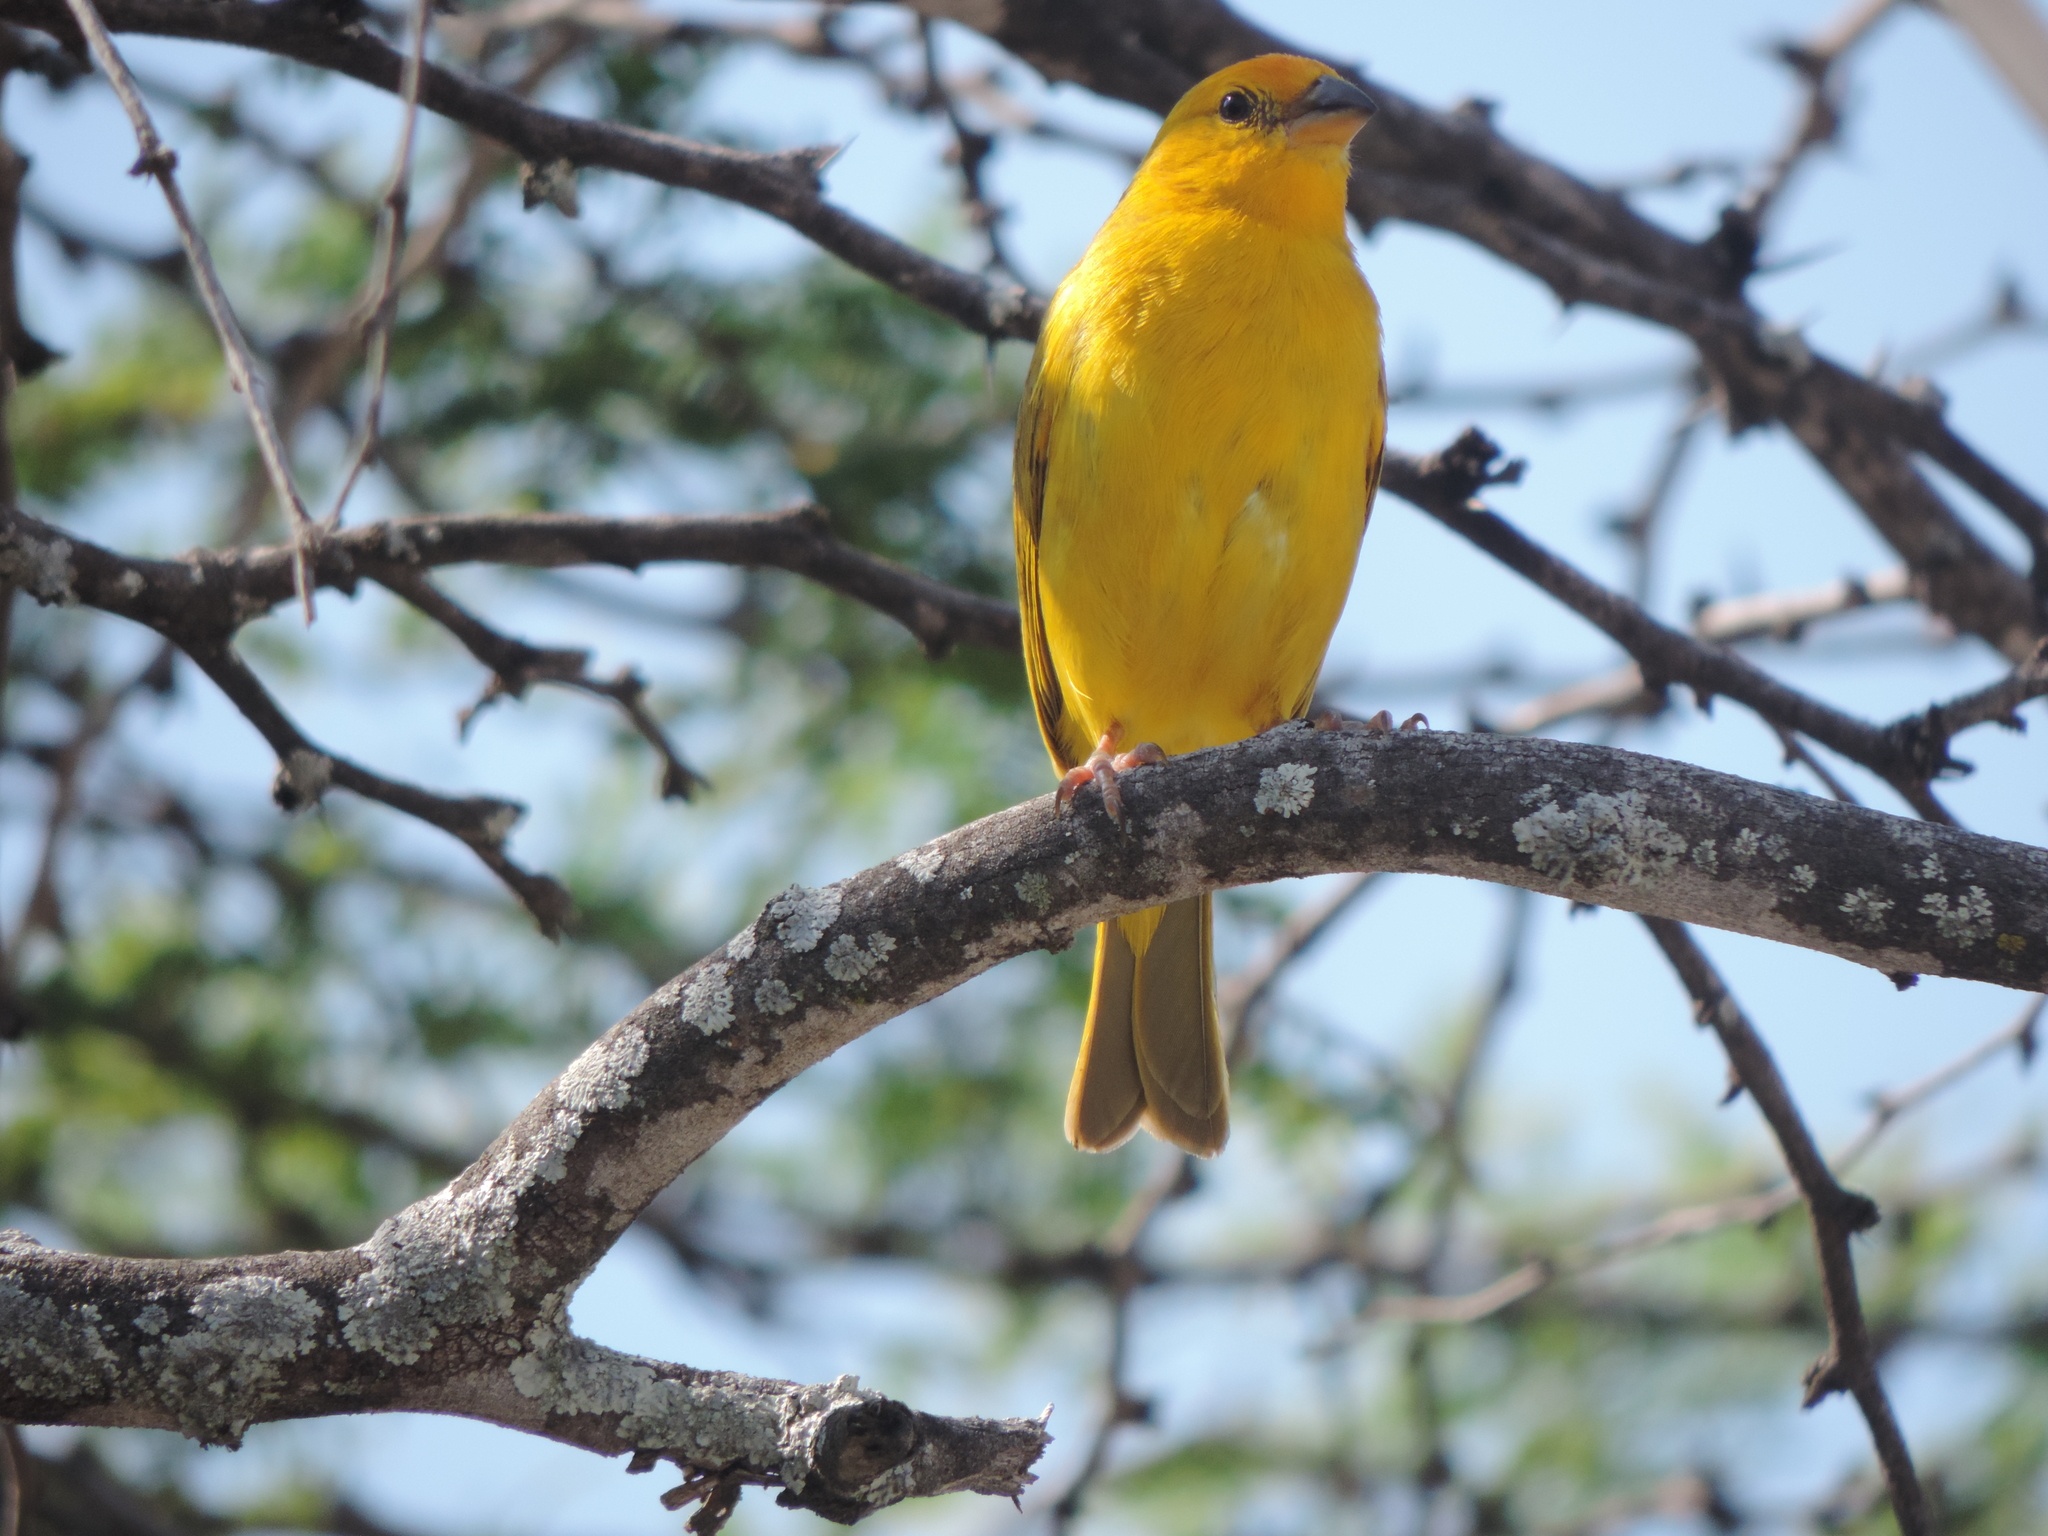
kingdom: Animalia
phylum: Chordata
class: Aves
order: Passeriformes
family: Thraupidae
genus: Sicalis
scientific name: Sicalis flaveola
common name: Saffron finch
